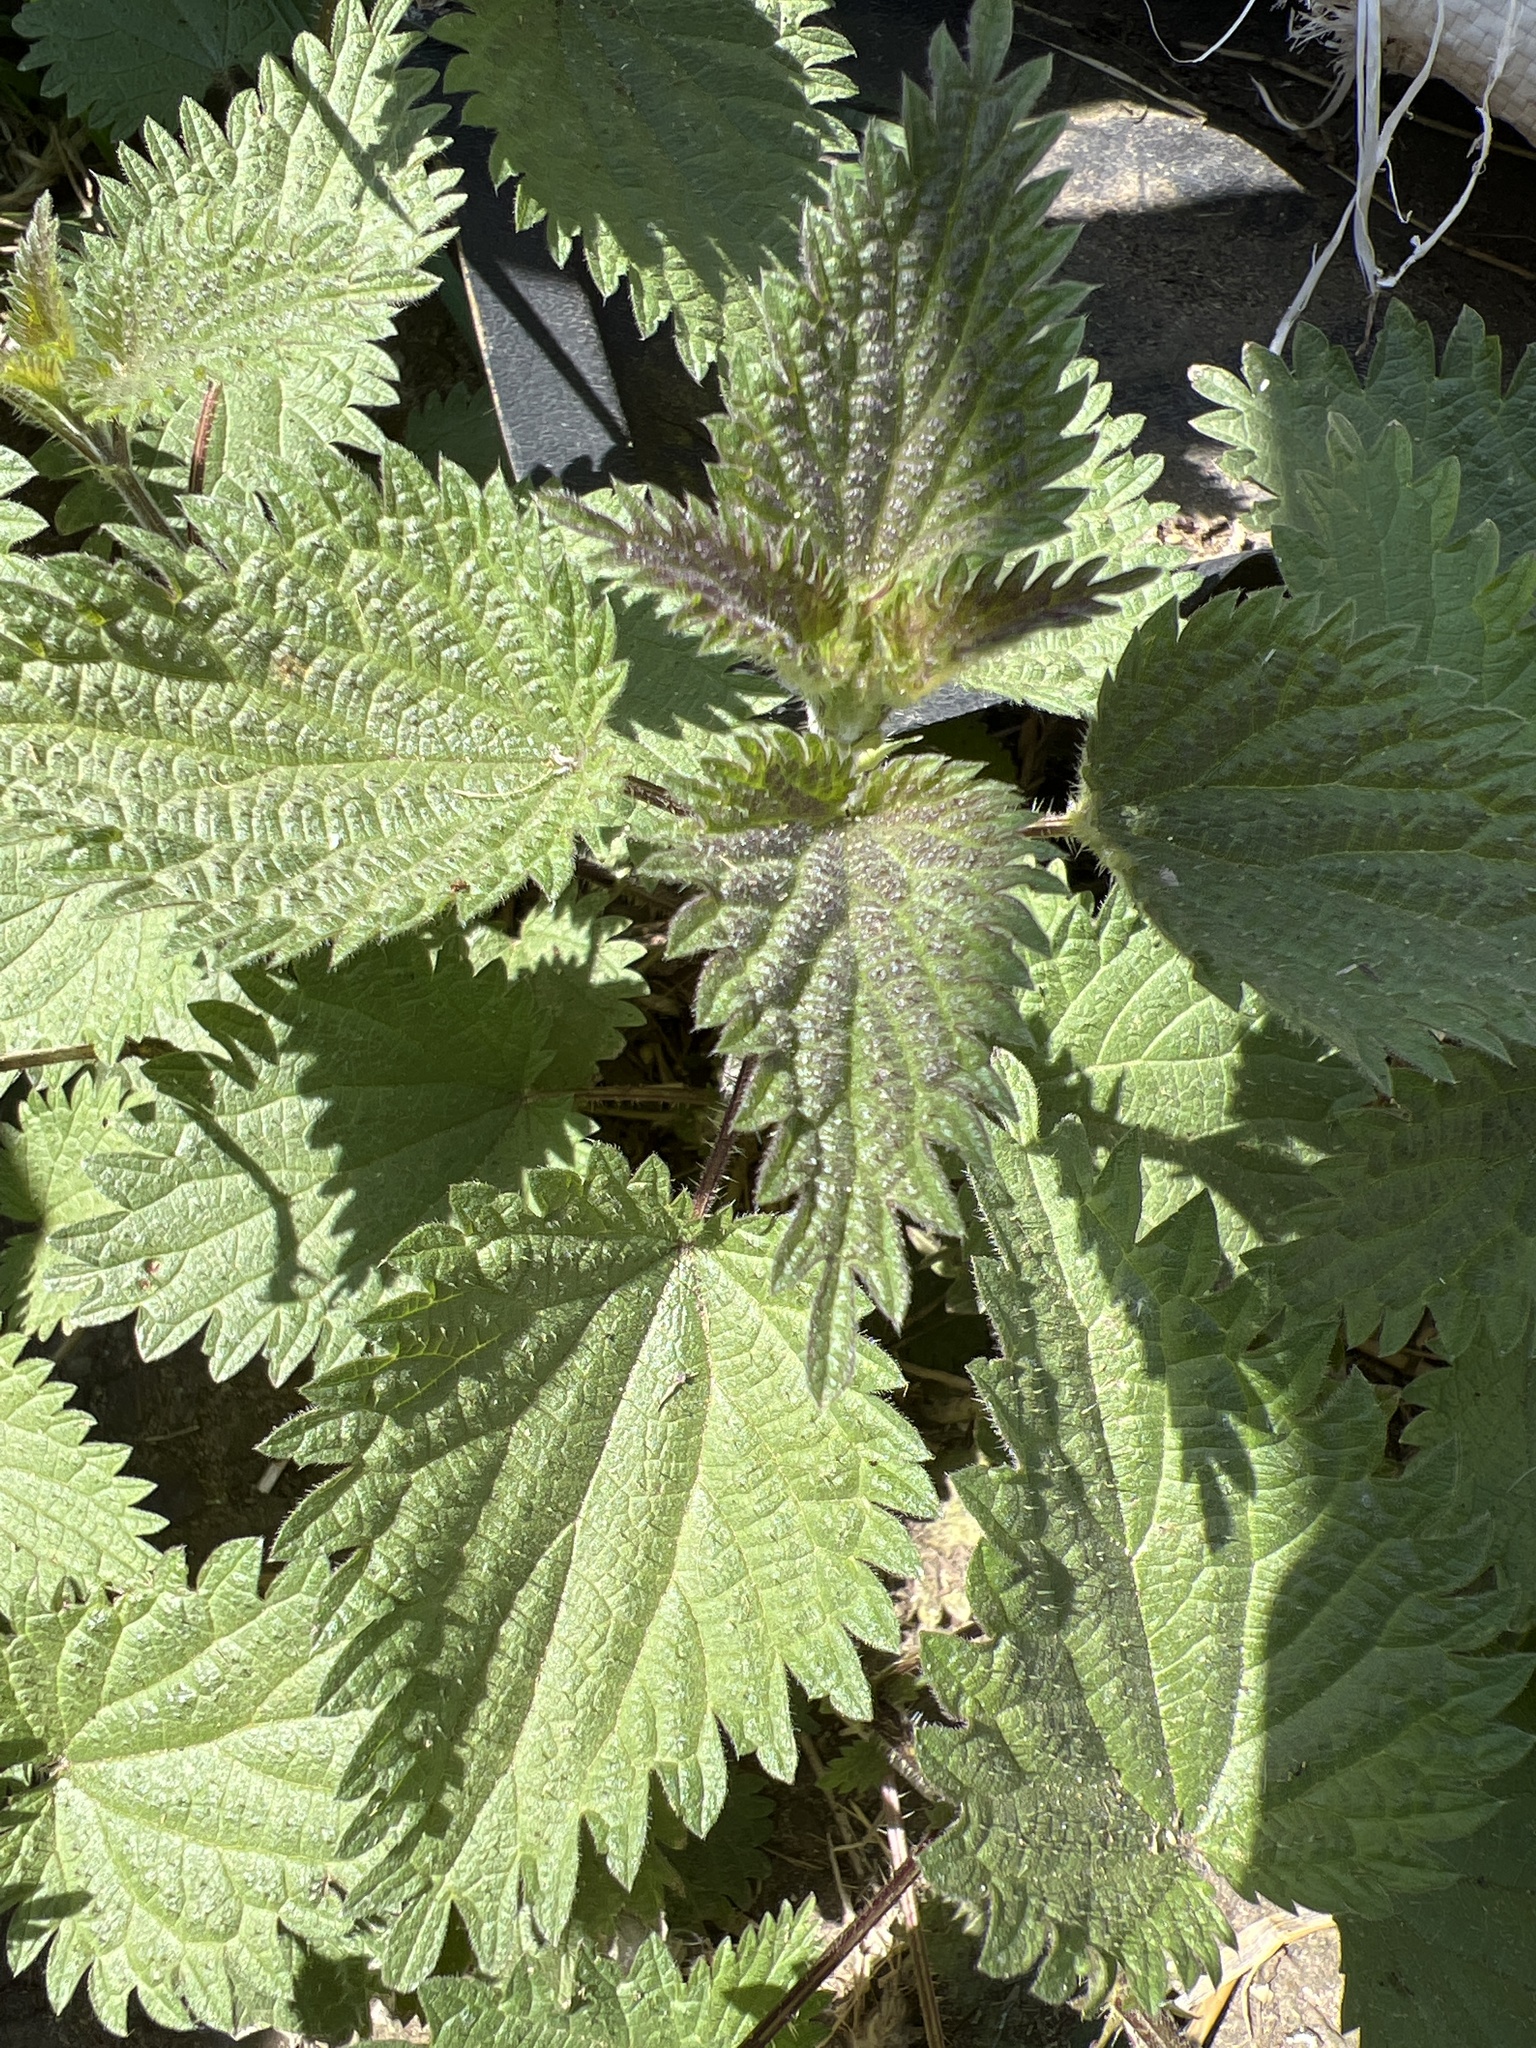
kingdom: Plantae
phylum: Tracheophyta
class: Magnoliopsida
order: Rosales
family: Urticaceae
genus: Urtica
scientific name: Urtica dioica
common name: Common nettle
